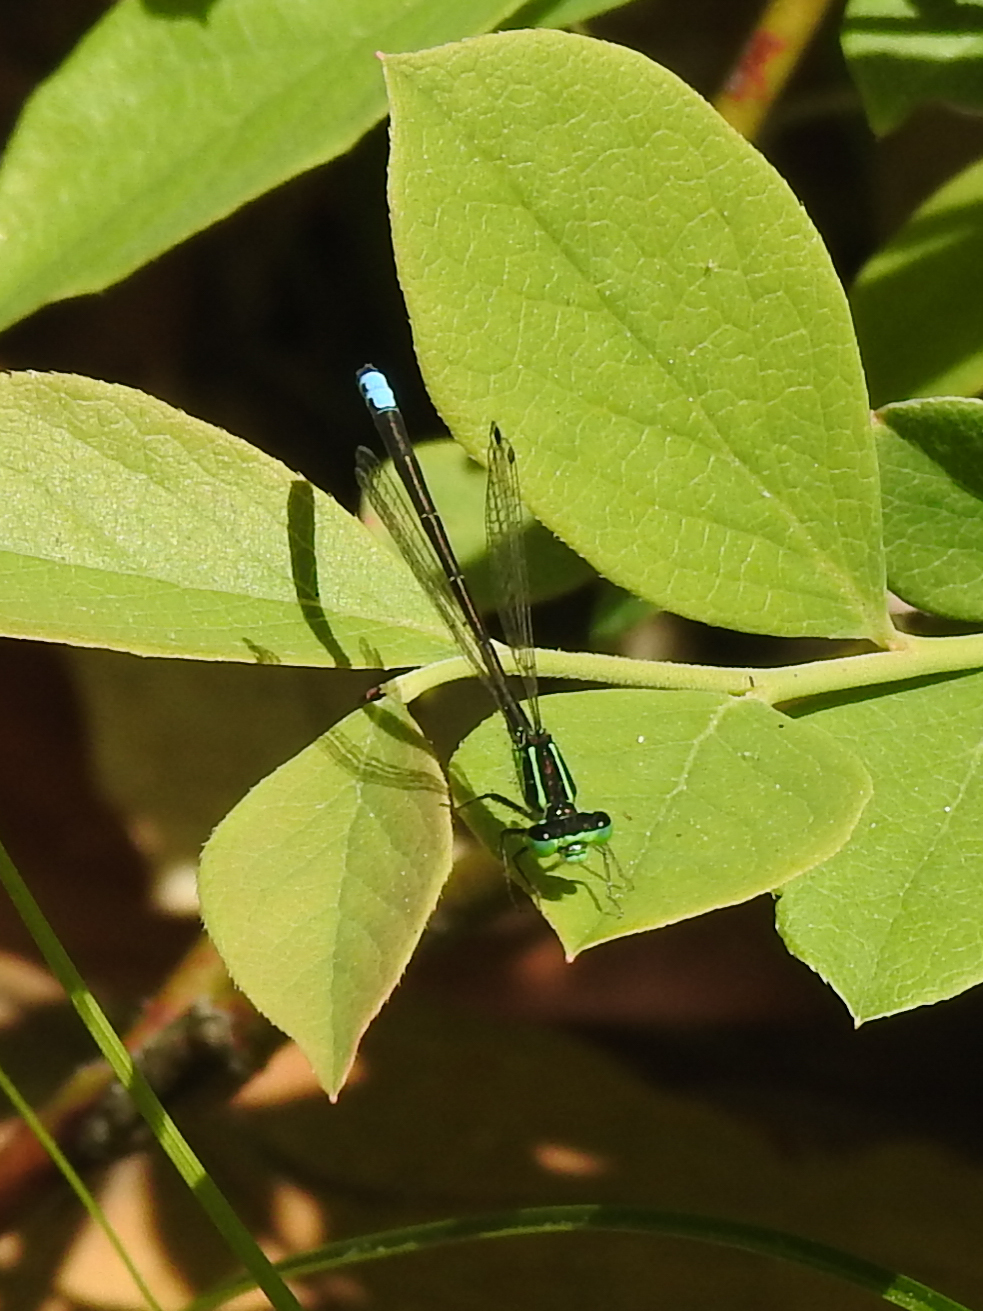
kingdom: Animalia
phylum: Arthropoda
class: Insecta
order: Odonata
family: Coenagrionidae
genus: Ischnura
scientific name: Ischnura verticalis
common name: Eastern forktail
